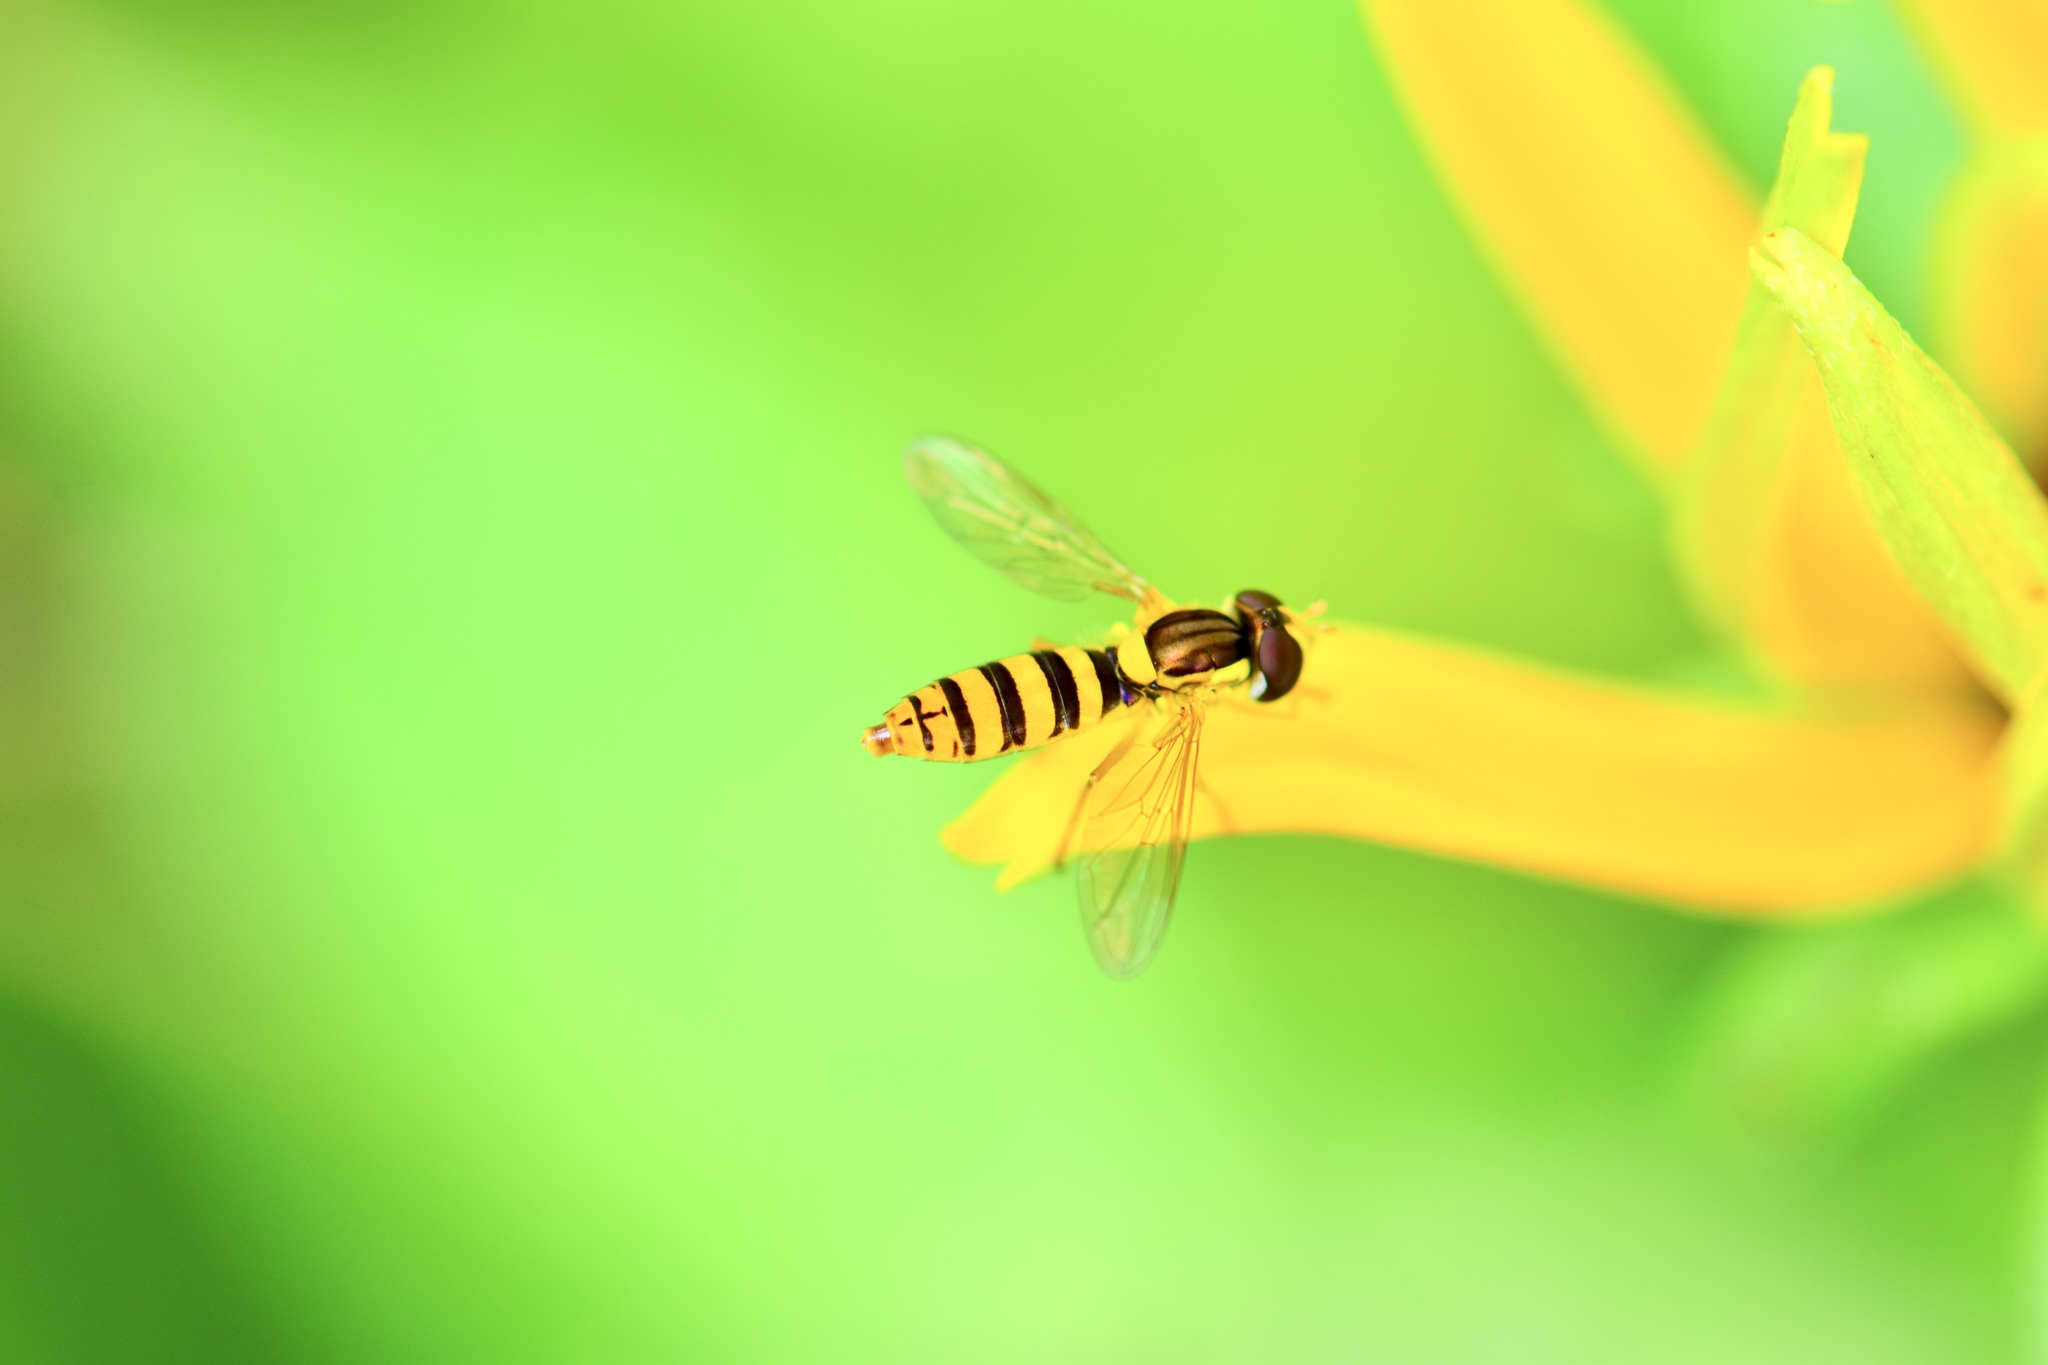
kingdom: Animalia
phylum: Arthropoda
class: Insecta
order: Diptera
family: Syrphidae
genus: Sphaerophoria
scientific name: Sphaerophoria
